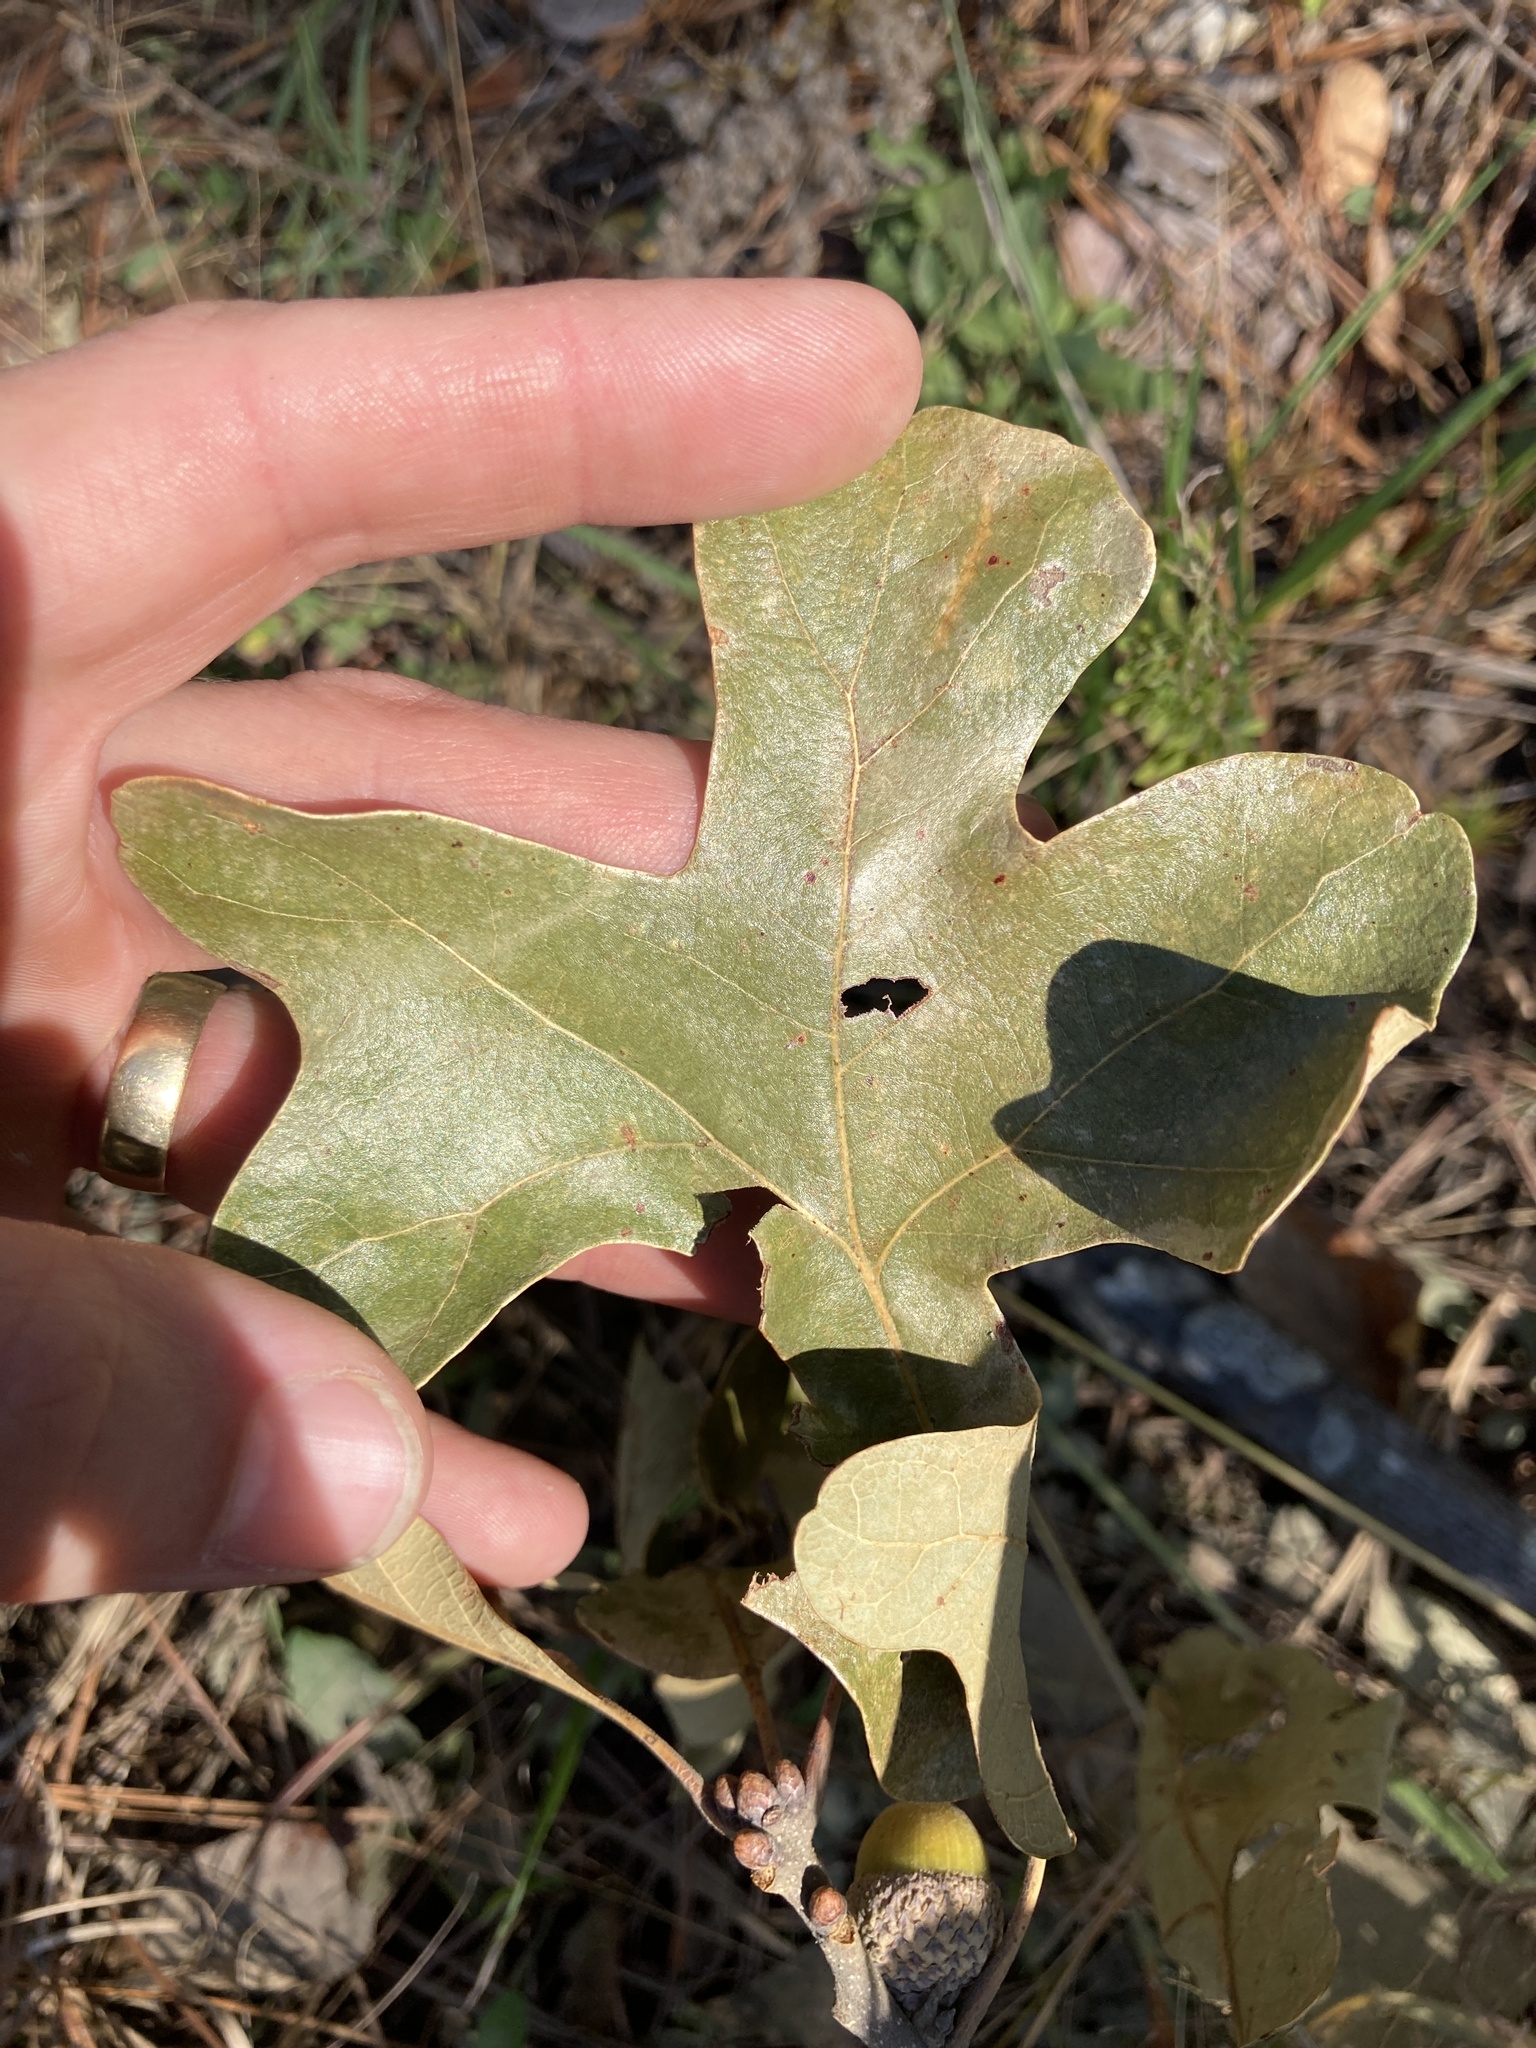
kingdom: Plantae
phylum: Tracheophyta
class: Magnoliopsida
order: Fagales
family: Fagaceae
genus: Quercus
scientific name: Quercus stellata
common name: Post oak
